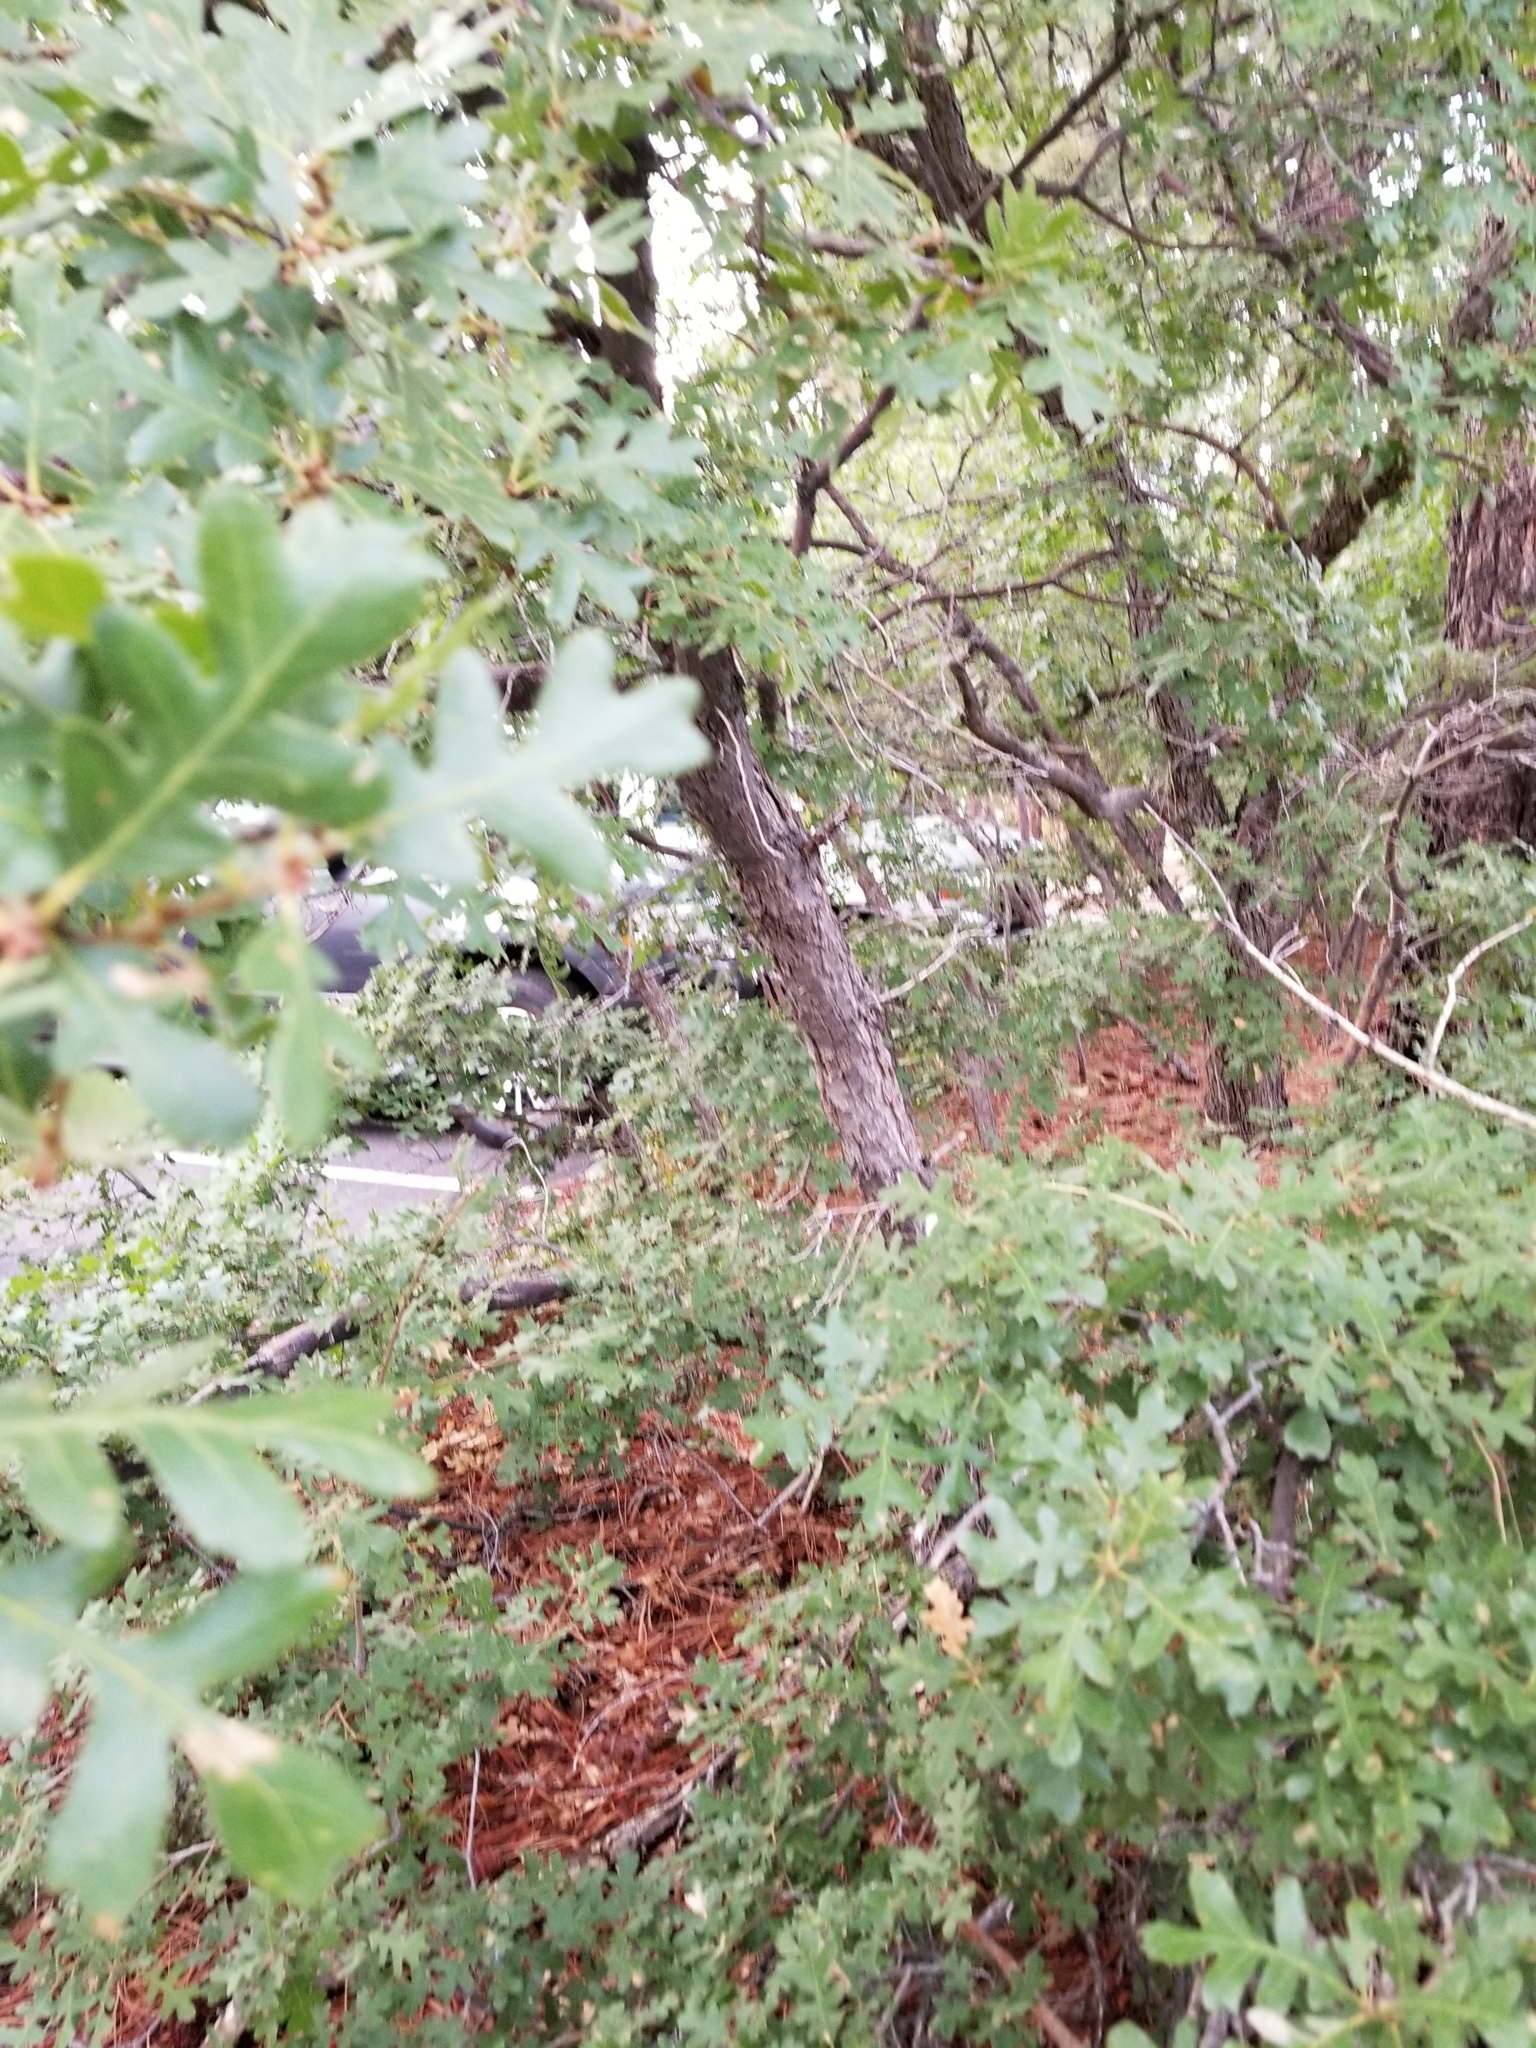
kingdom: Plantae
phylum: Tracheophyta
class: Magnoliopsida
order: Fagales
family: Fagaceae
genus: Quercus
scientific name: Quercus gambelii
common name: Gambel oak
